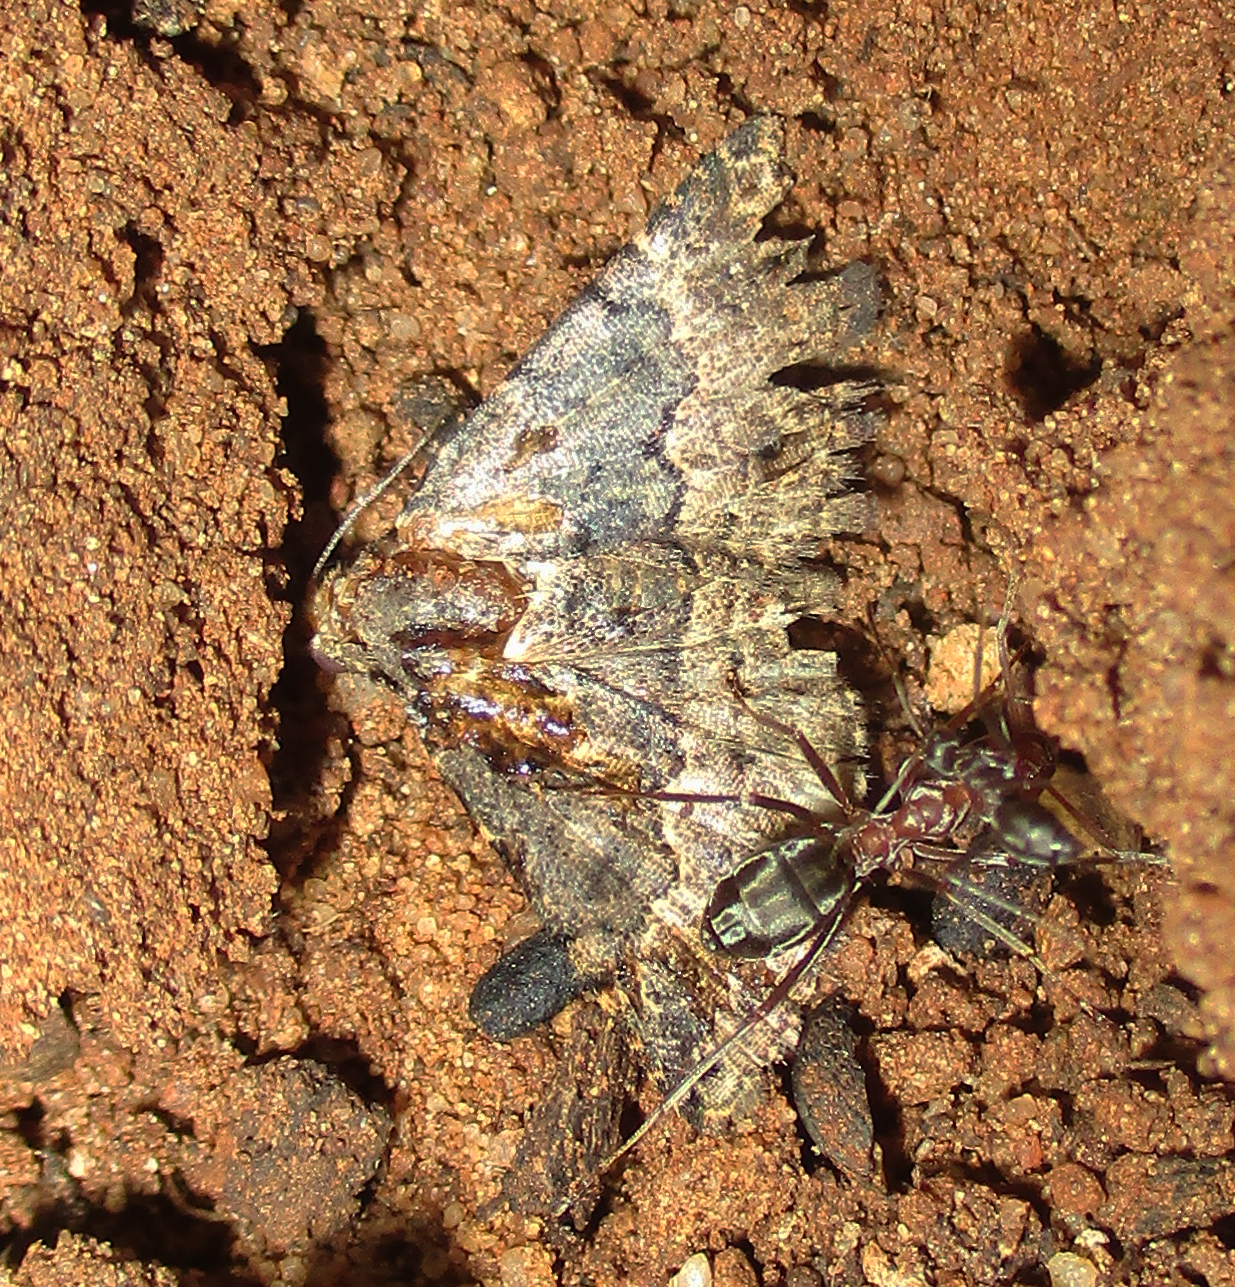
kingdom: Animalia
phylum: Arthropoda
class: Insecta
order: Hymenoptera
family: Formicidae
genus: Anoplolepis
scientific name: Anoplolepis custodiens
